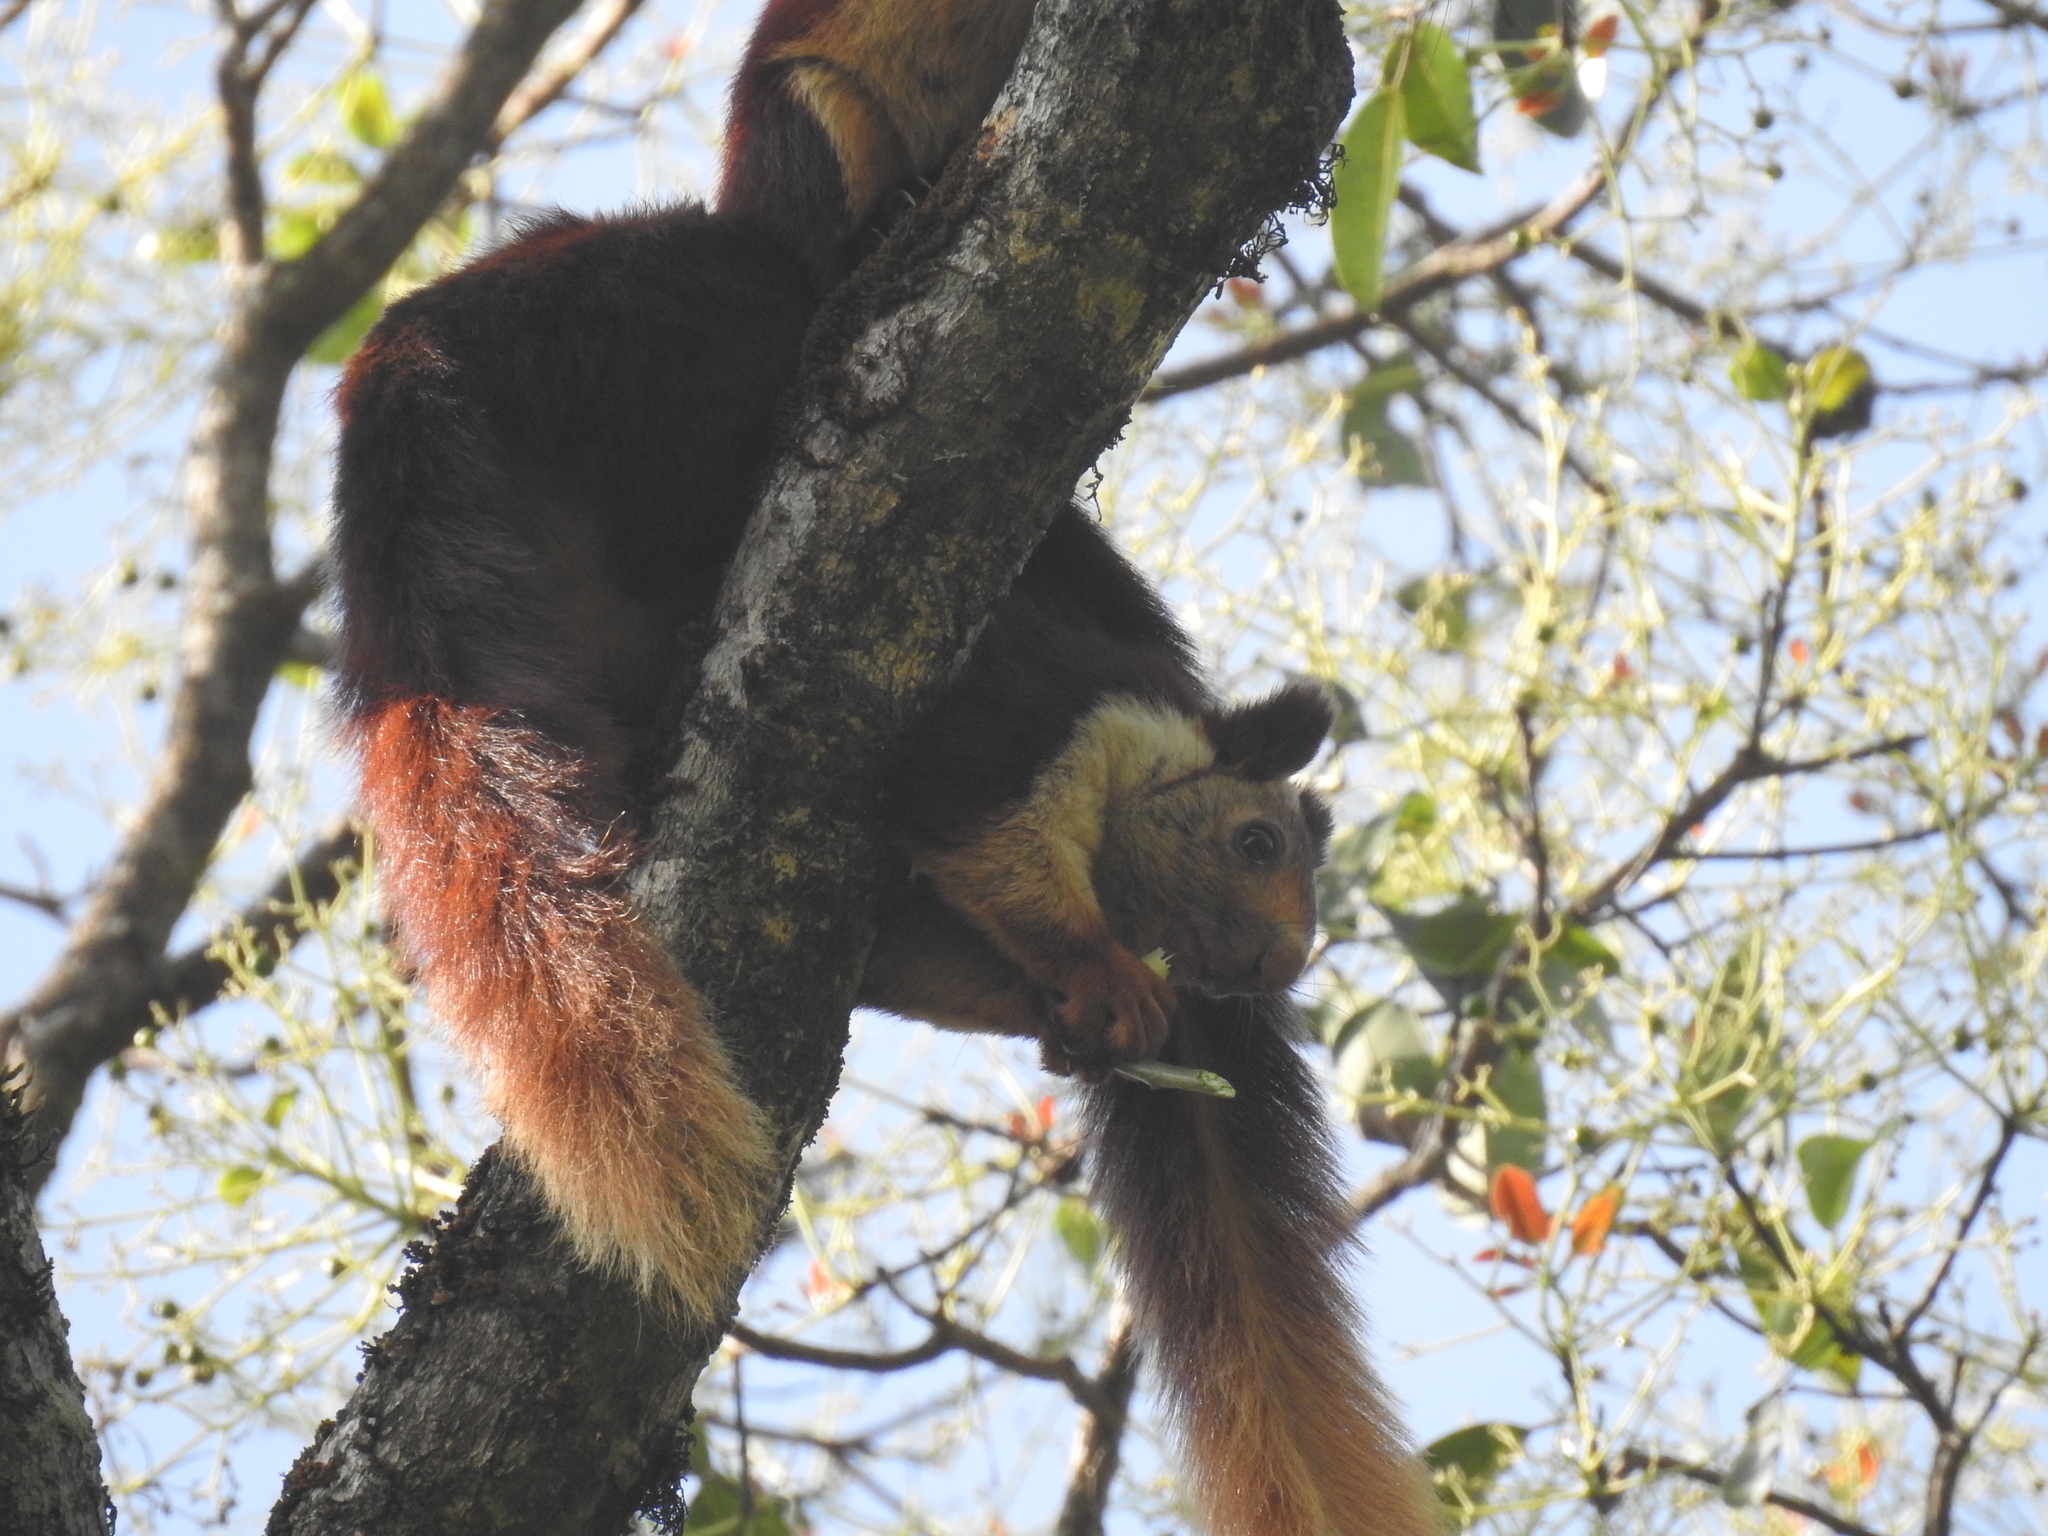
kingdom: Animalia
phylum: Chordata
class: Mammalia
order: Rodentia
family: Sciuridae
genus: Ratufa
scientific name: Ratufa indica
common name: Indian giant squirrel
